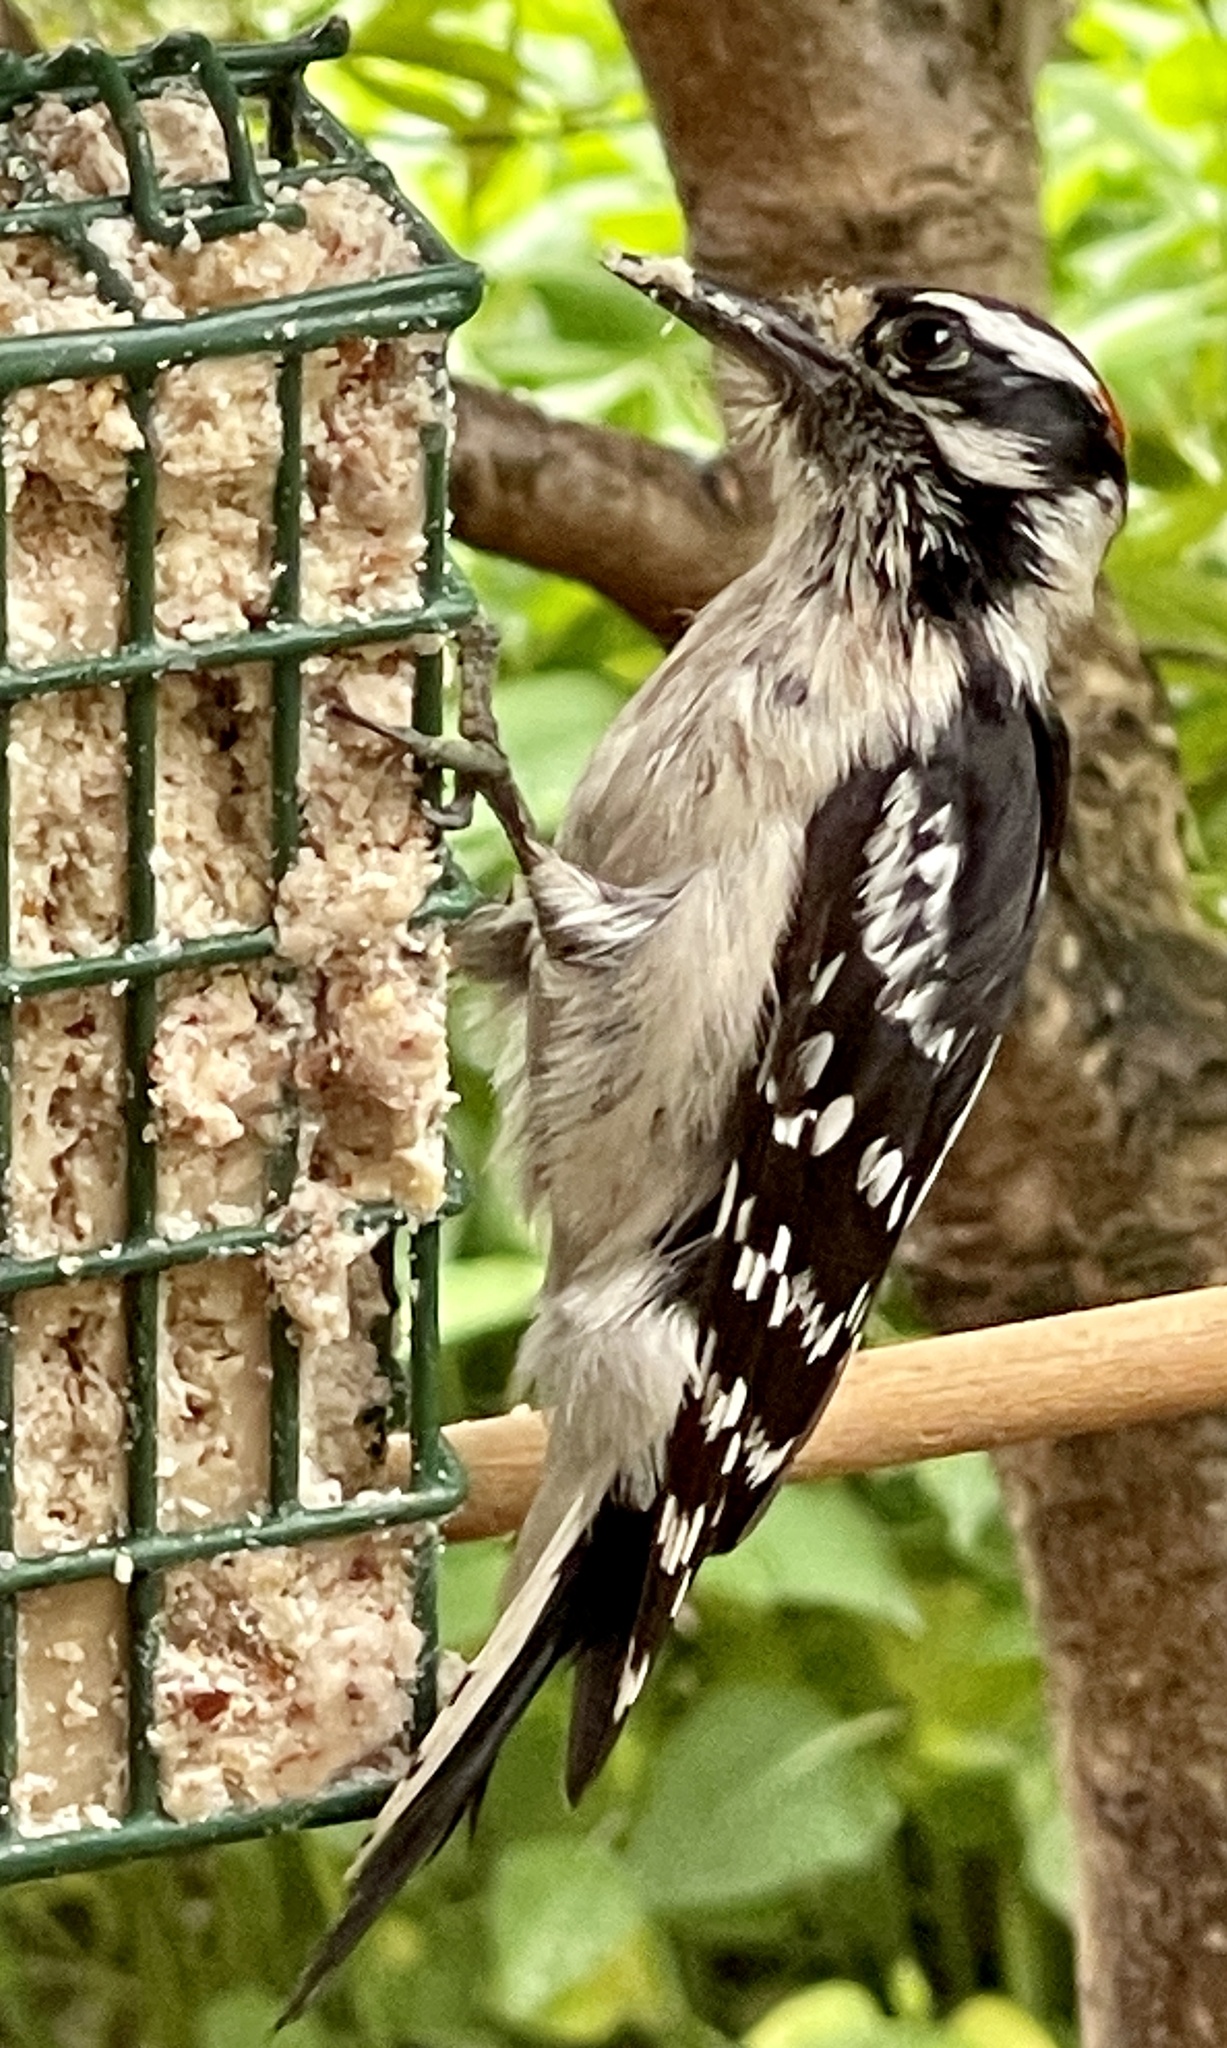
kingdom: Animalia
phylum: Chordata
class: Aves
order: Piciformes
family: Picidae
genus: Dryobates
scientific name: Dryobates pubescens
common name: Downy woodpecker
